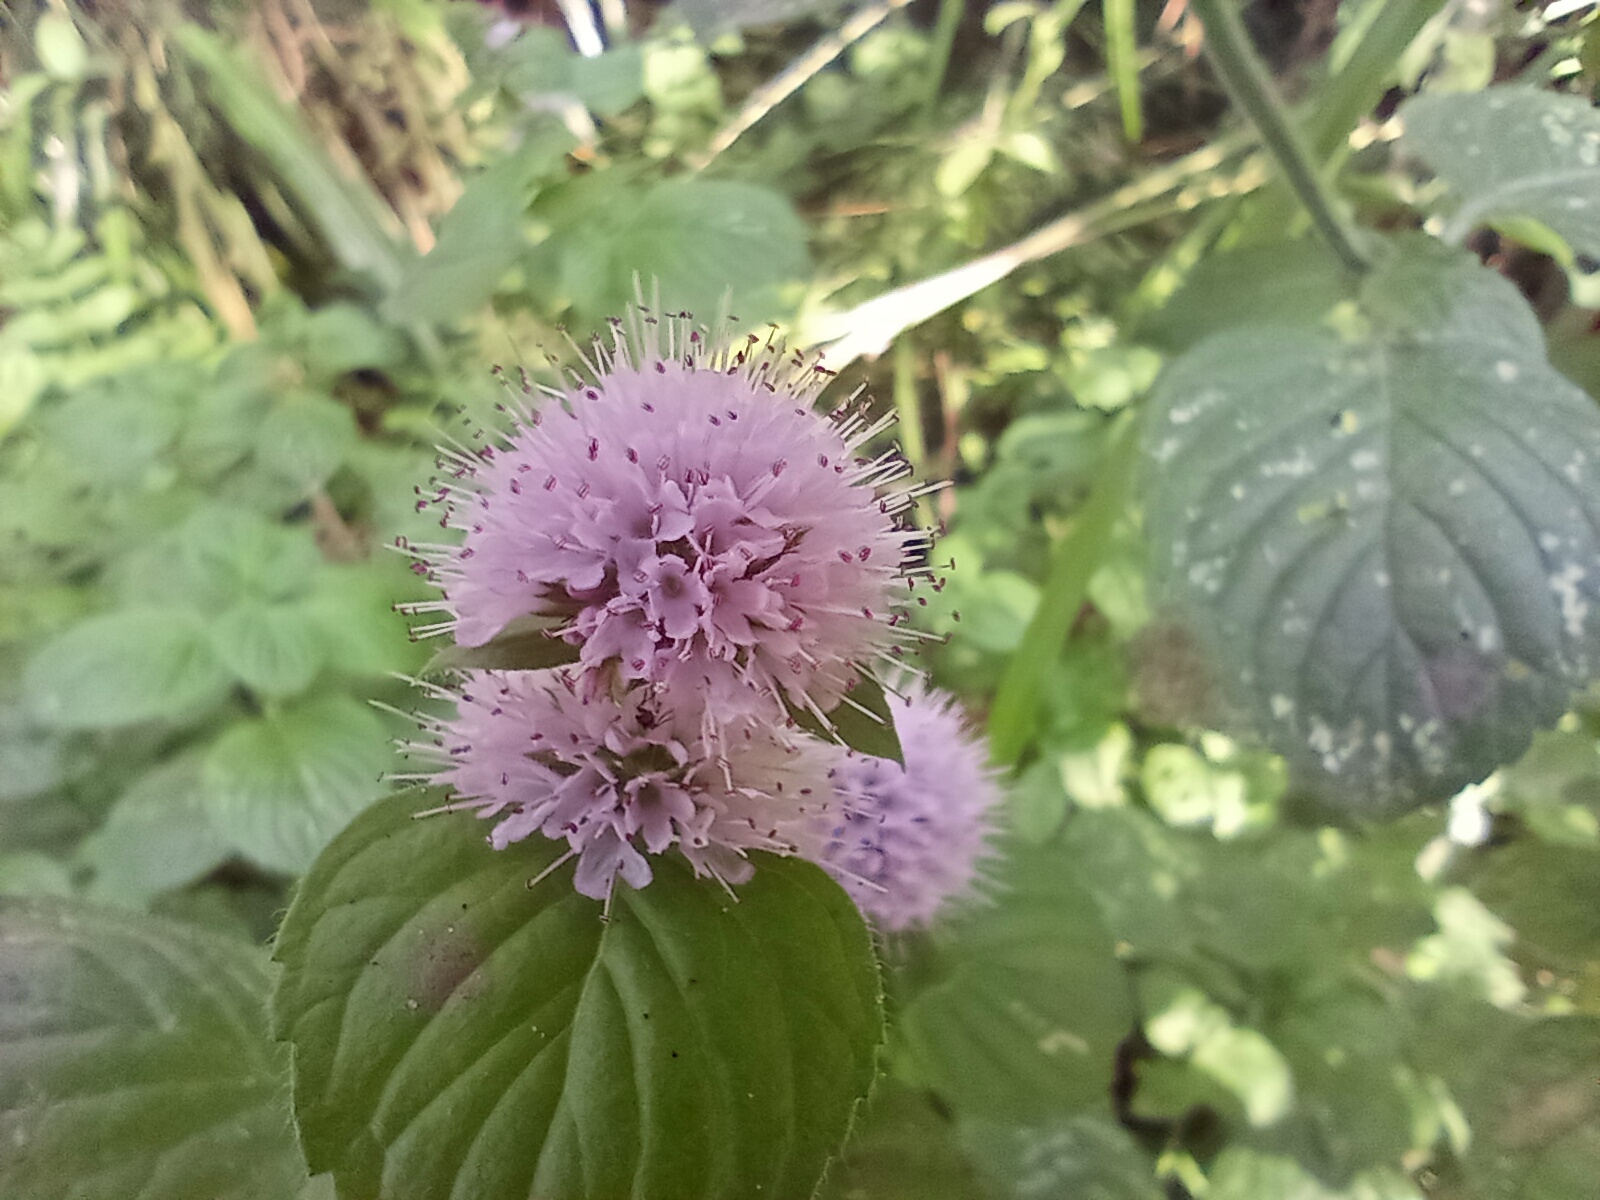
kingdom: Plantae
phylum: Tracheophyta
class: Magnoliopsida
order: Lamiales
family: Lamiaceae
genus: Mentha
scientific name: Mentha aquatica
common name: Water mint
